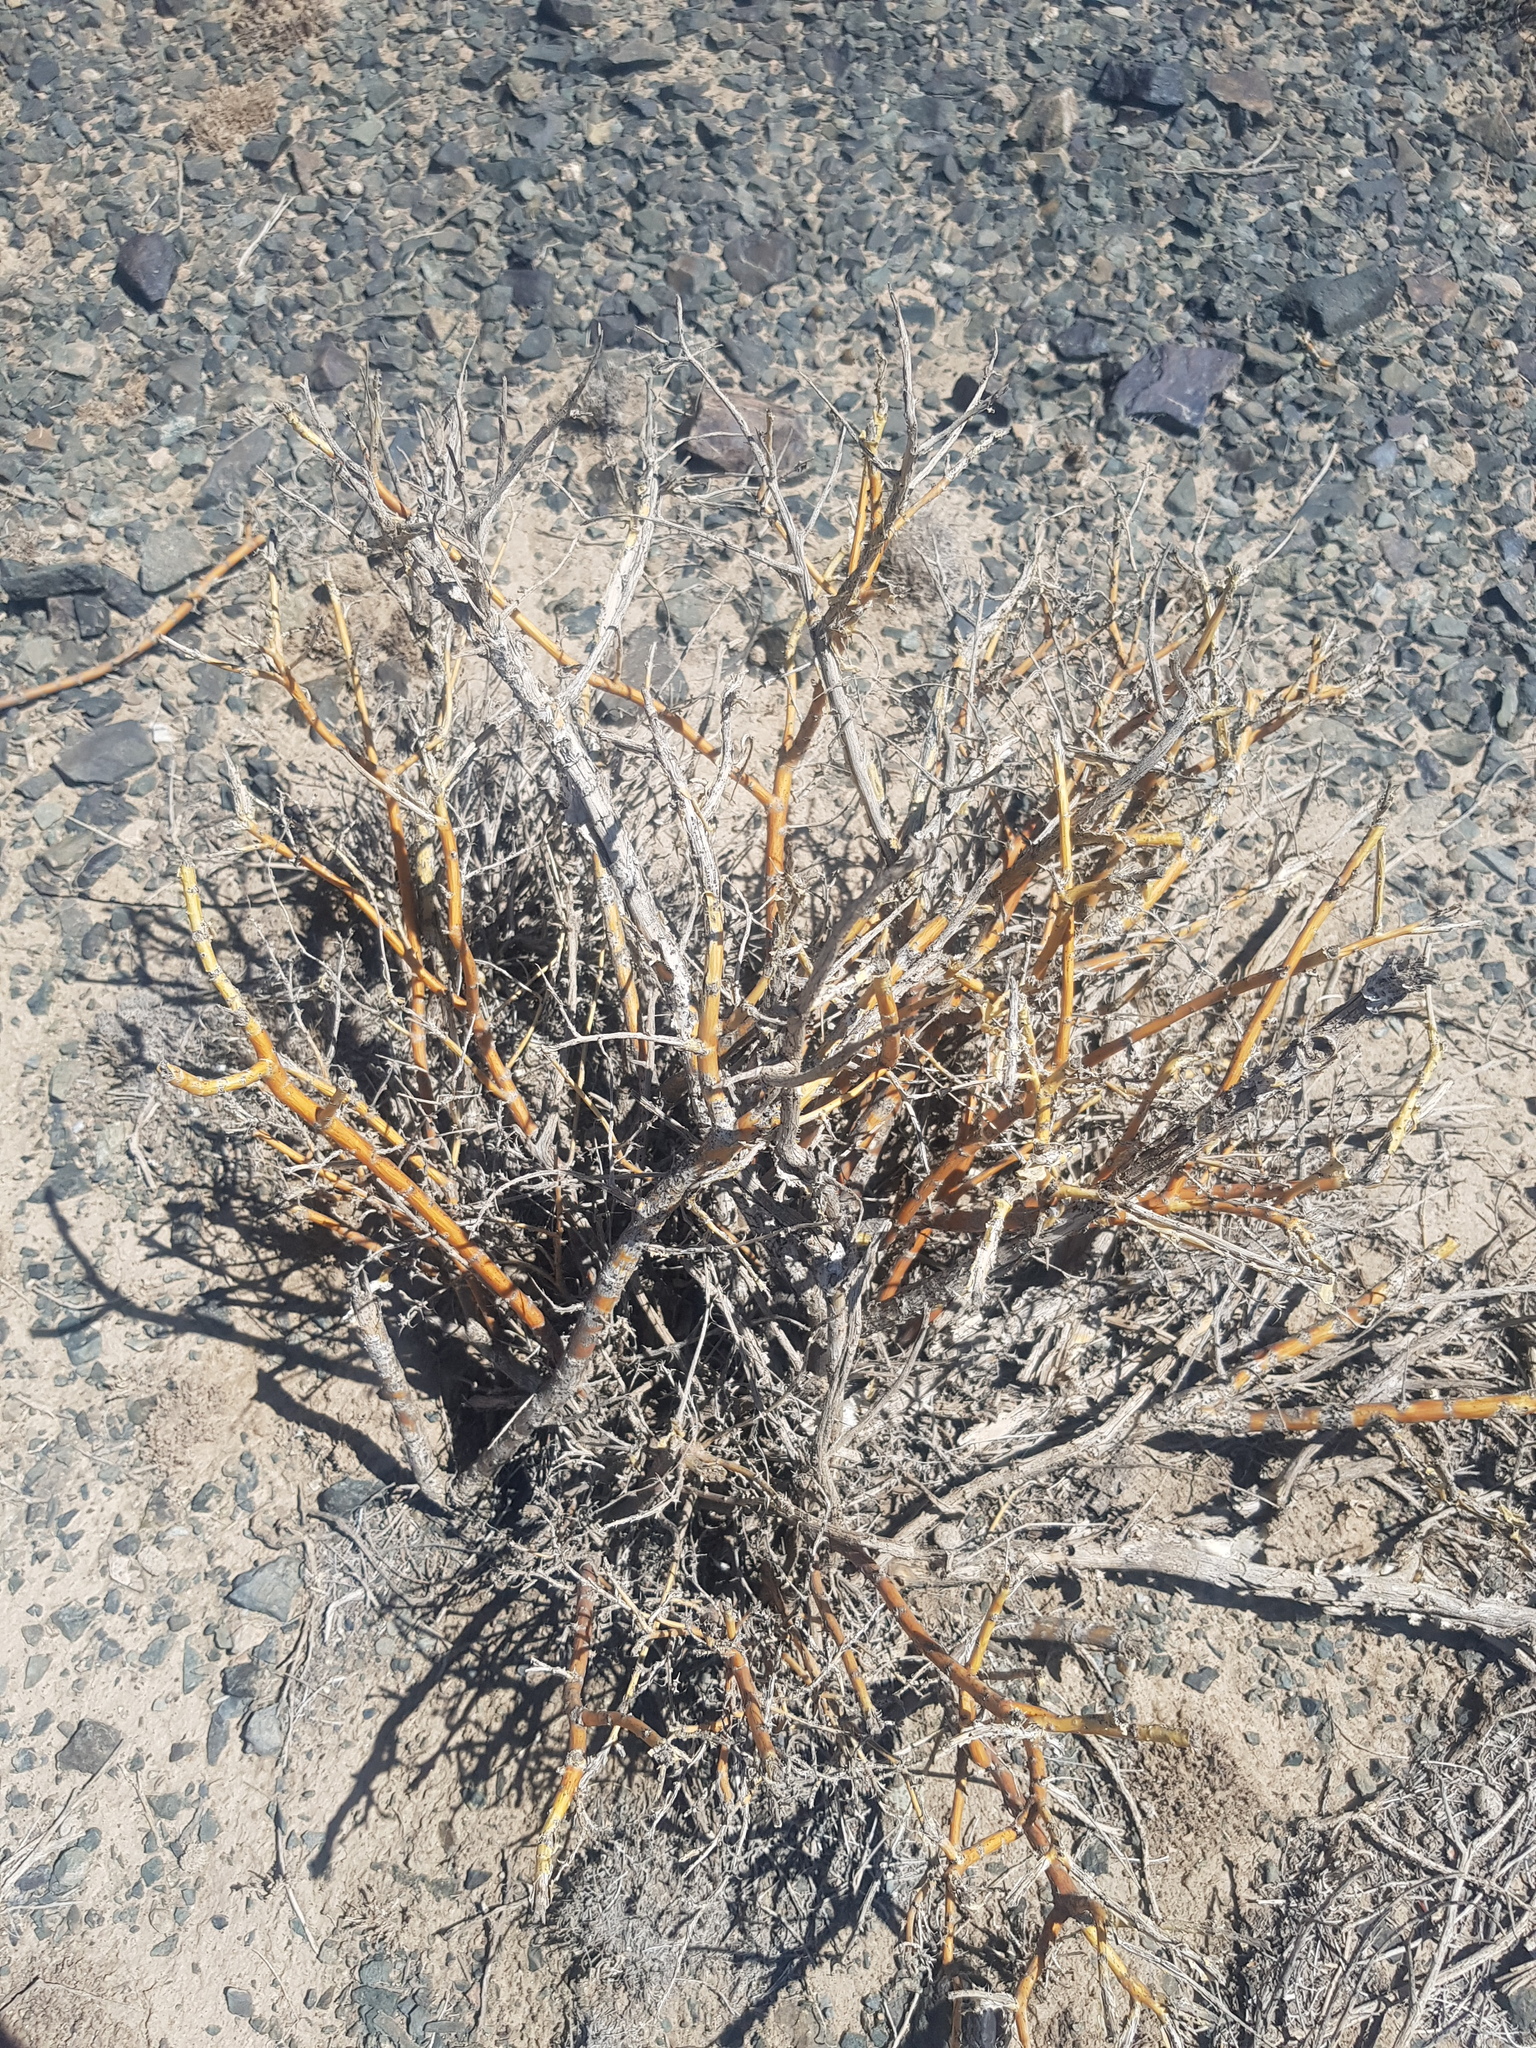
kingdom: Plantae
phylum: Tracheophyta
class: Magnoliopsida
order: Fabales
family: Fabaceae
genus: Caragana
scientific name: Caragana leucophloea
